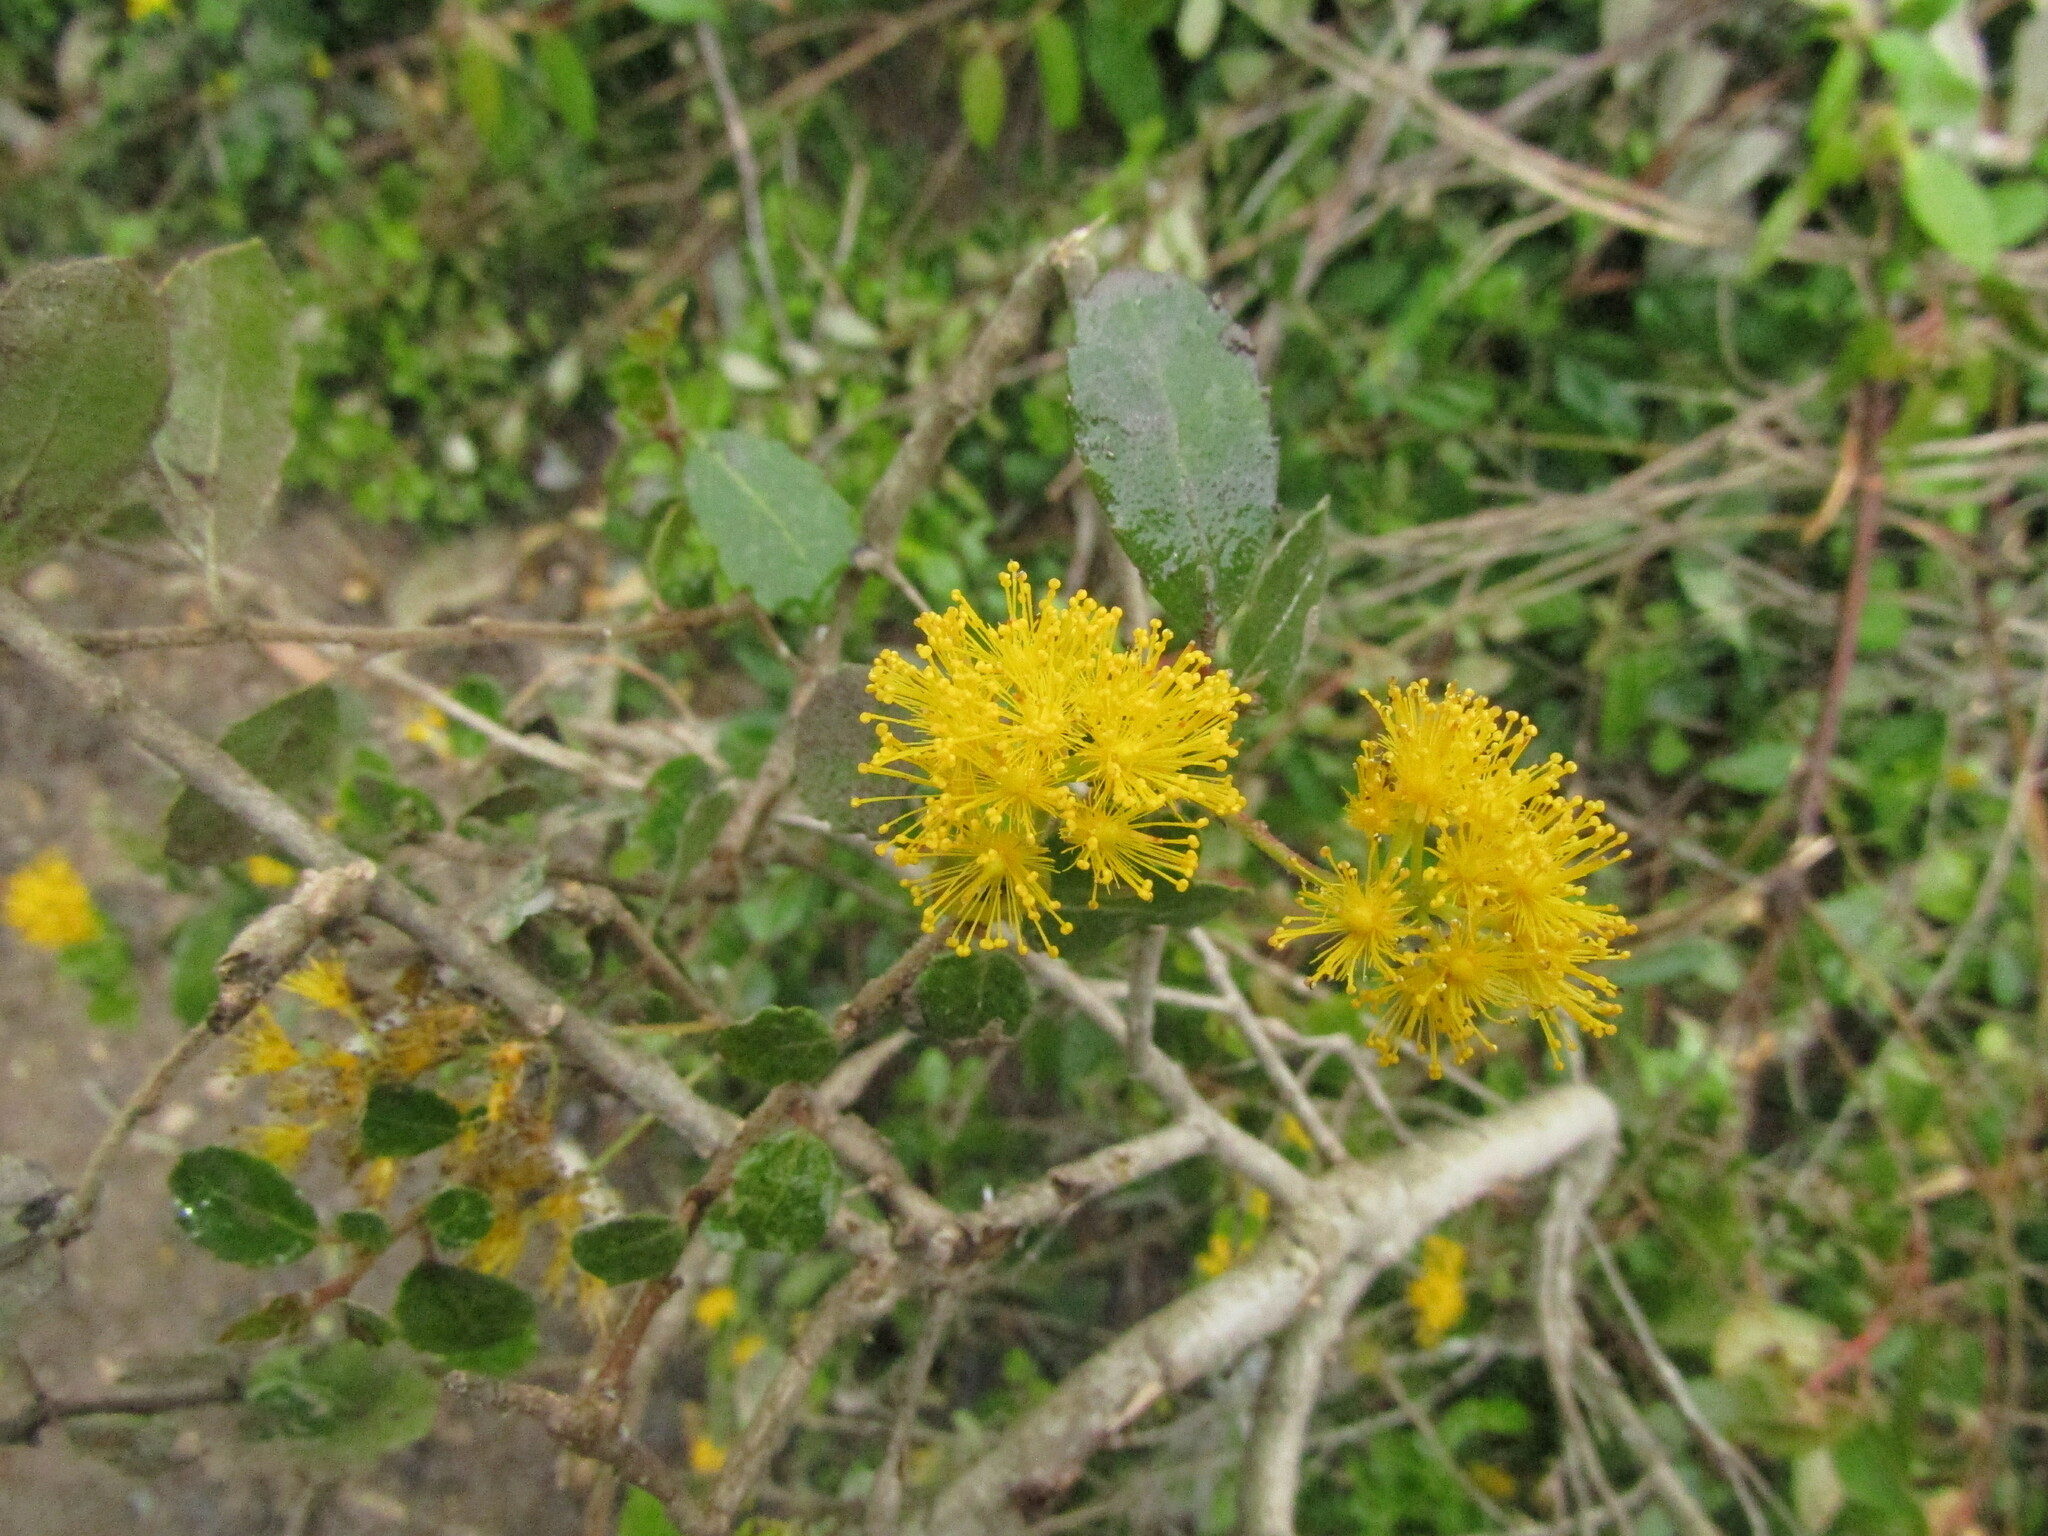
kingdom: Plantae
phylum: Tracheophyta
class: Magnoliopsida
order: Malpighiales
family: Salicaceae
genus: Azara
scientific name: Azara serrata
